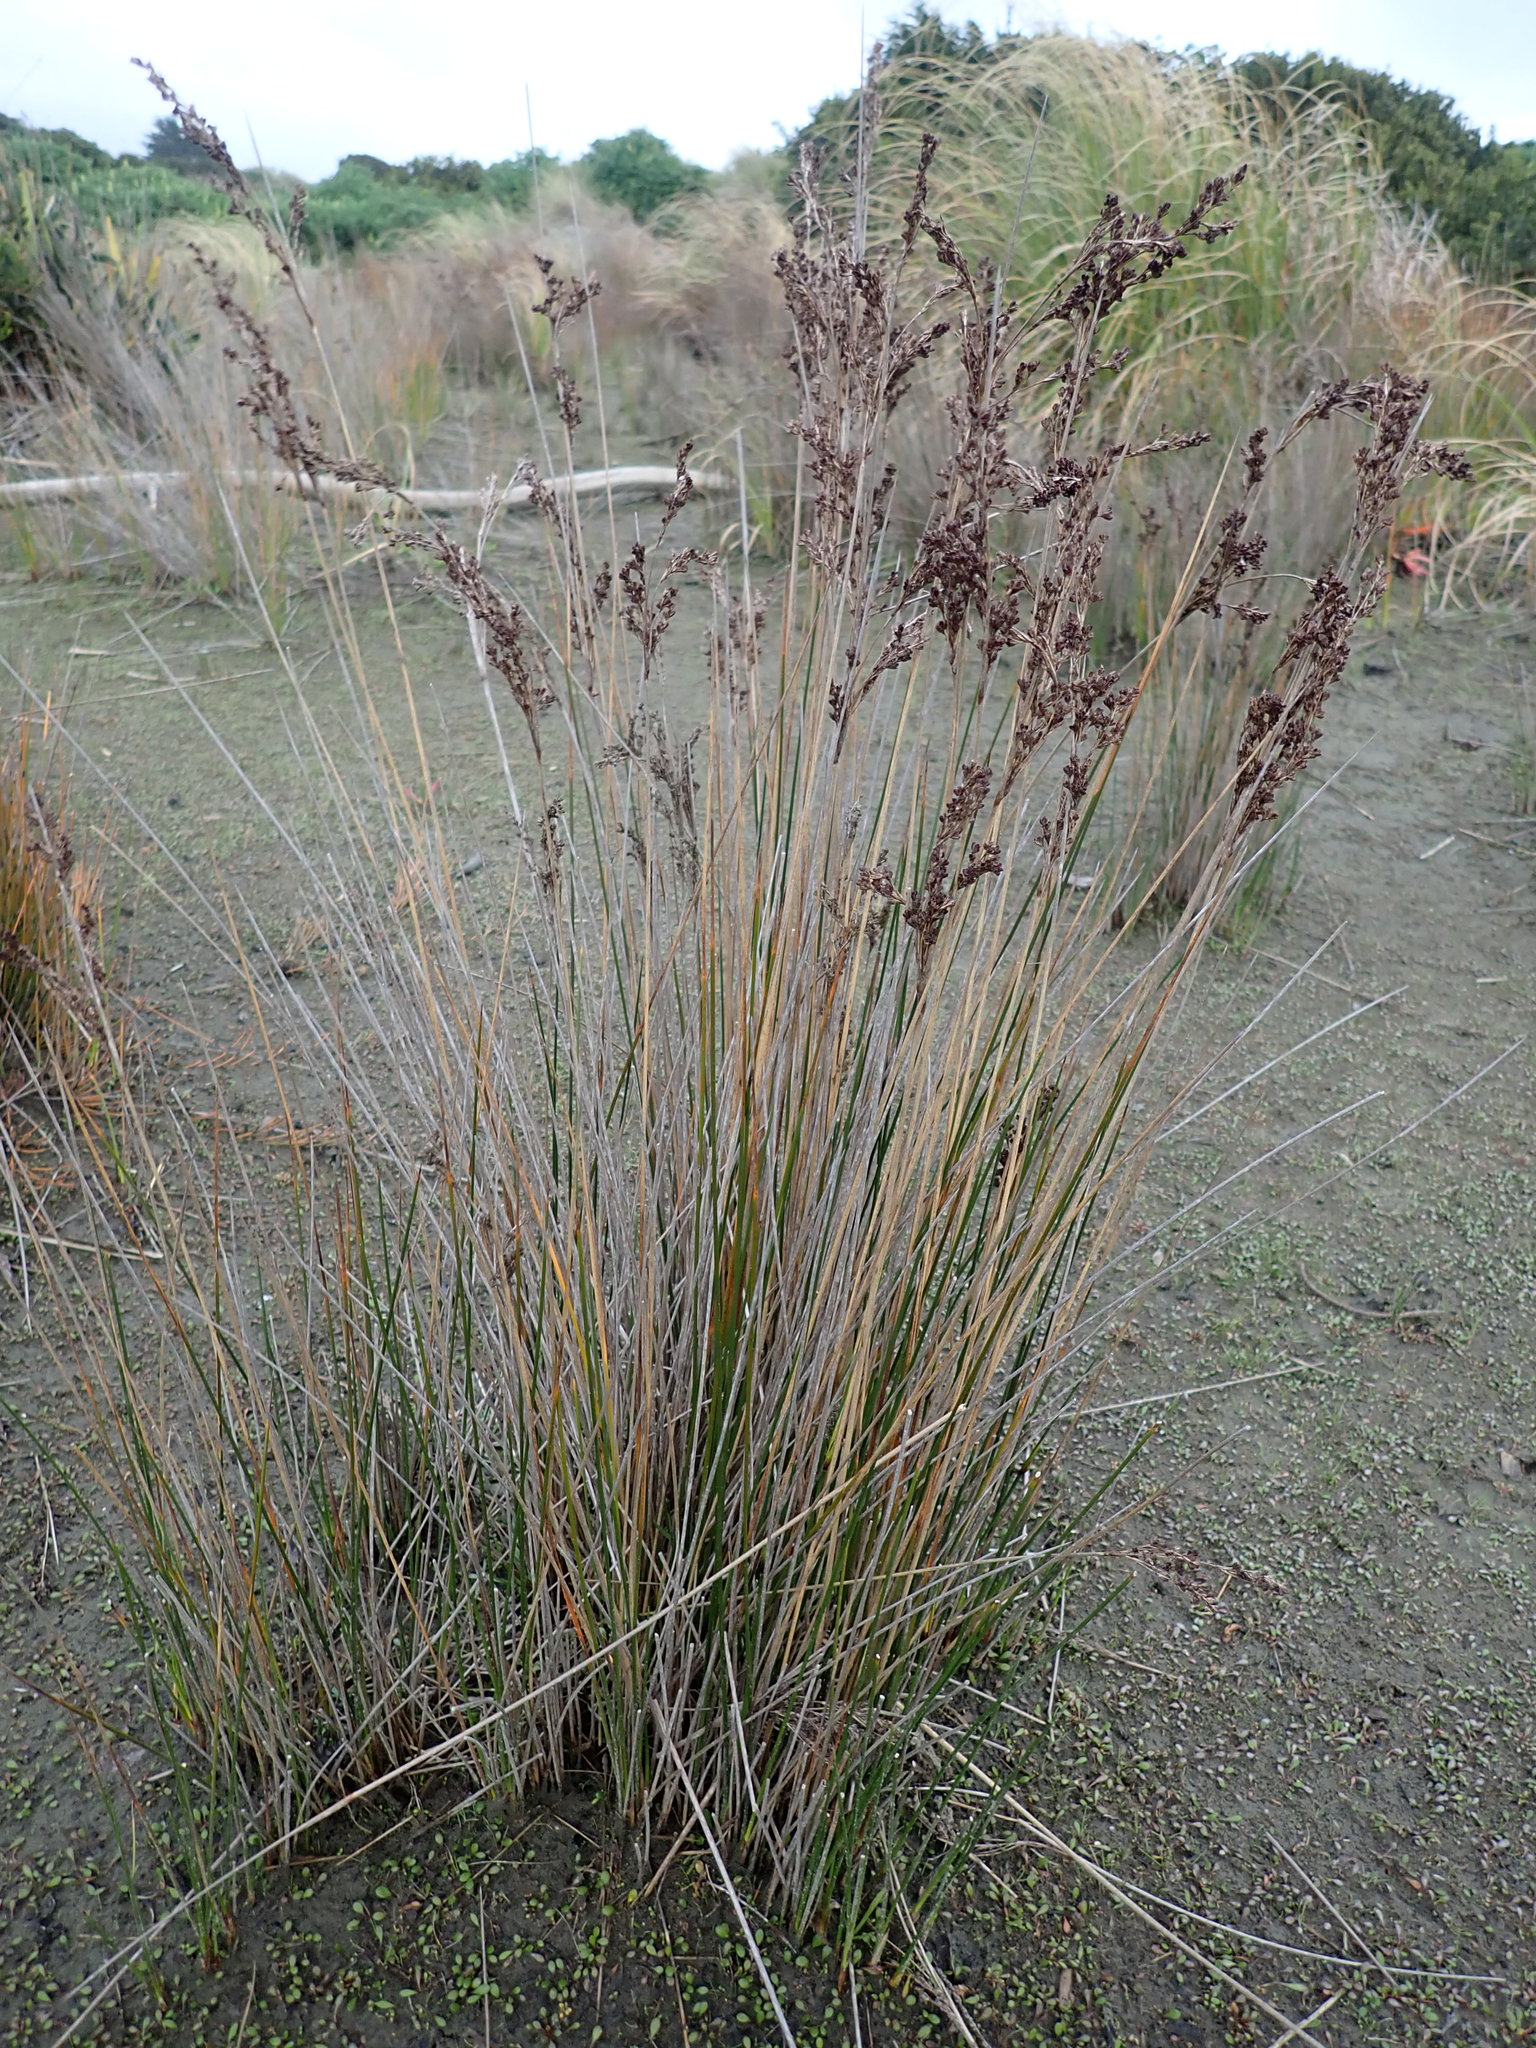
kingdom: Plantae
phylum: Tracheophyta
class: Liliopsida
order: Poales
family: Juncaceae
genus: Juncus
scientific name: Juncus kraussii
